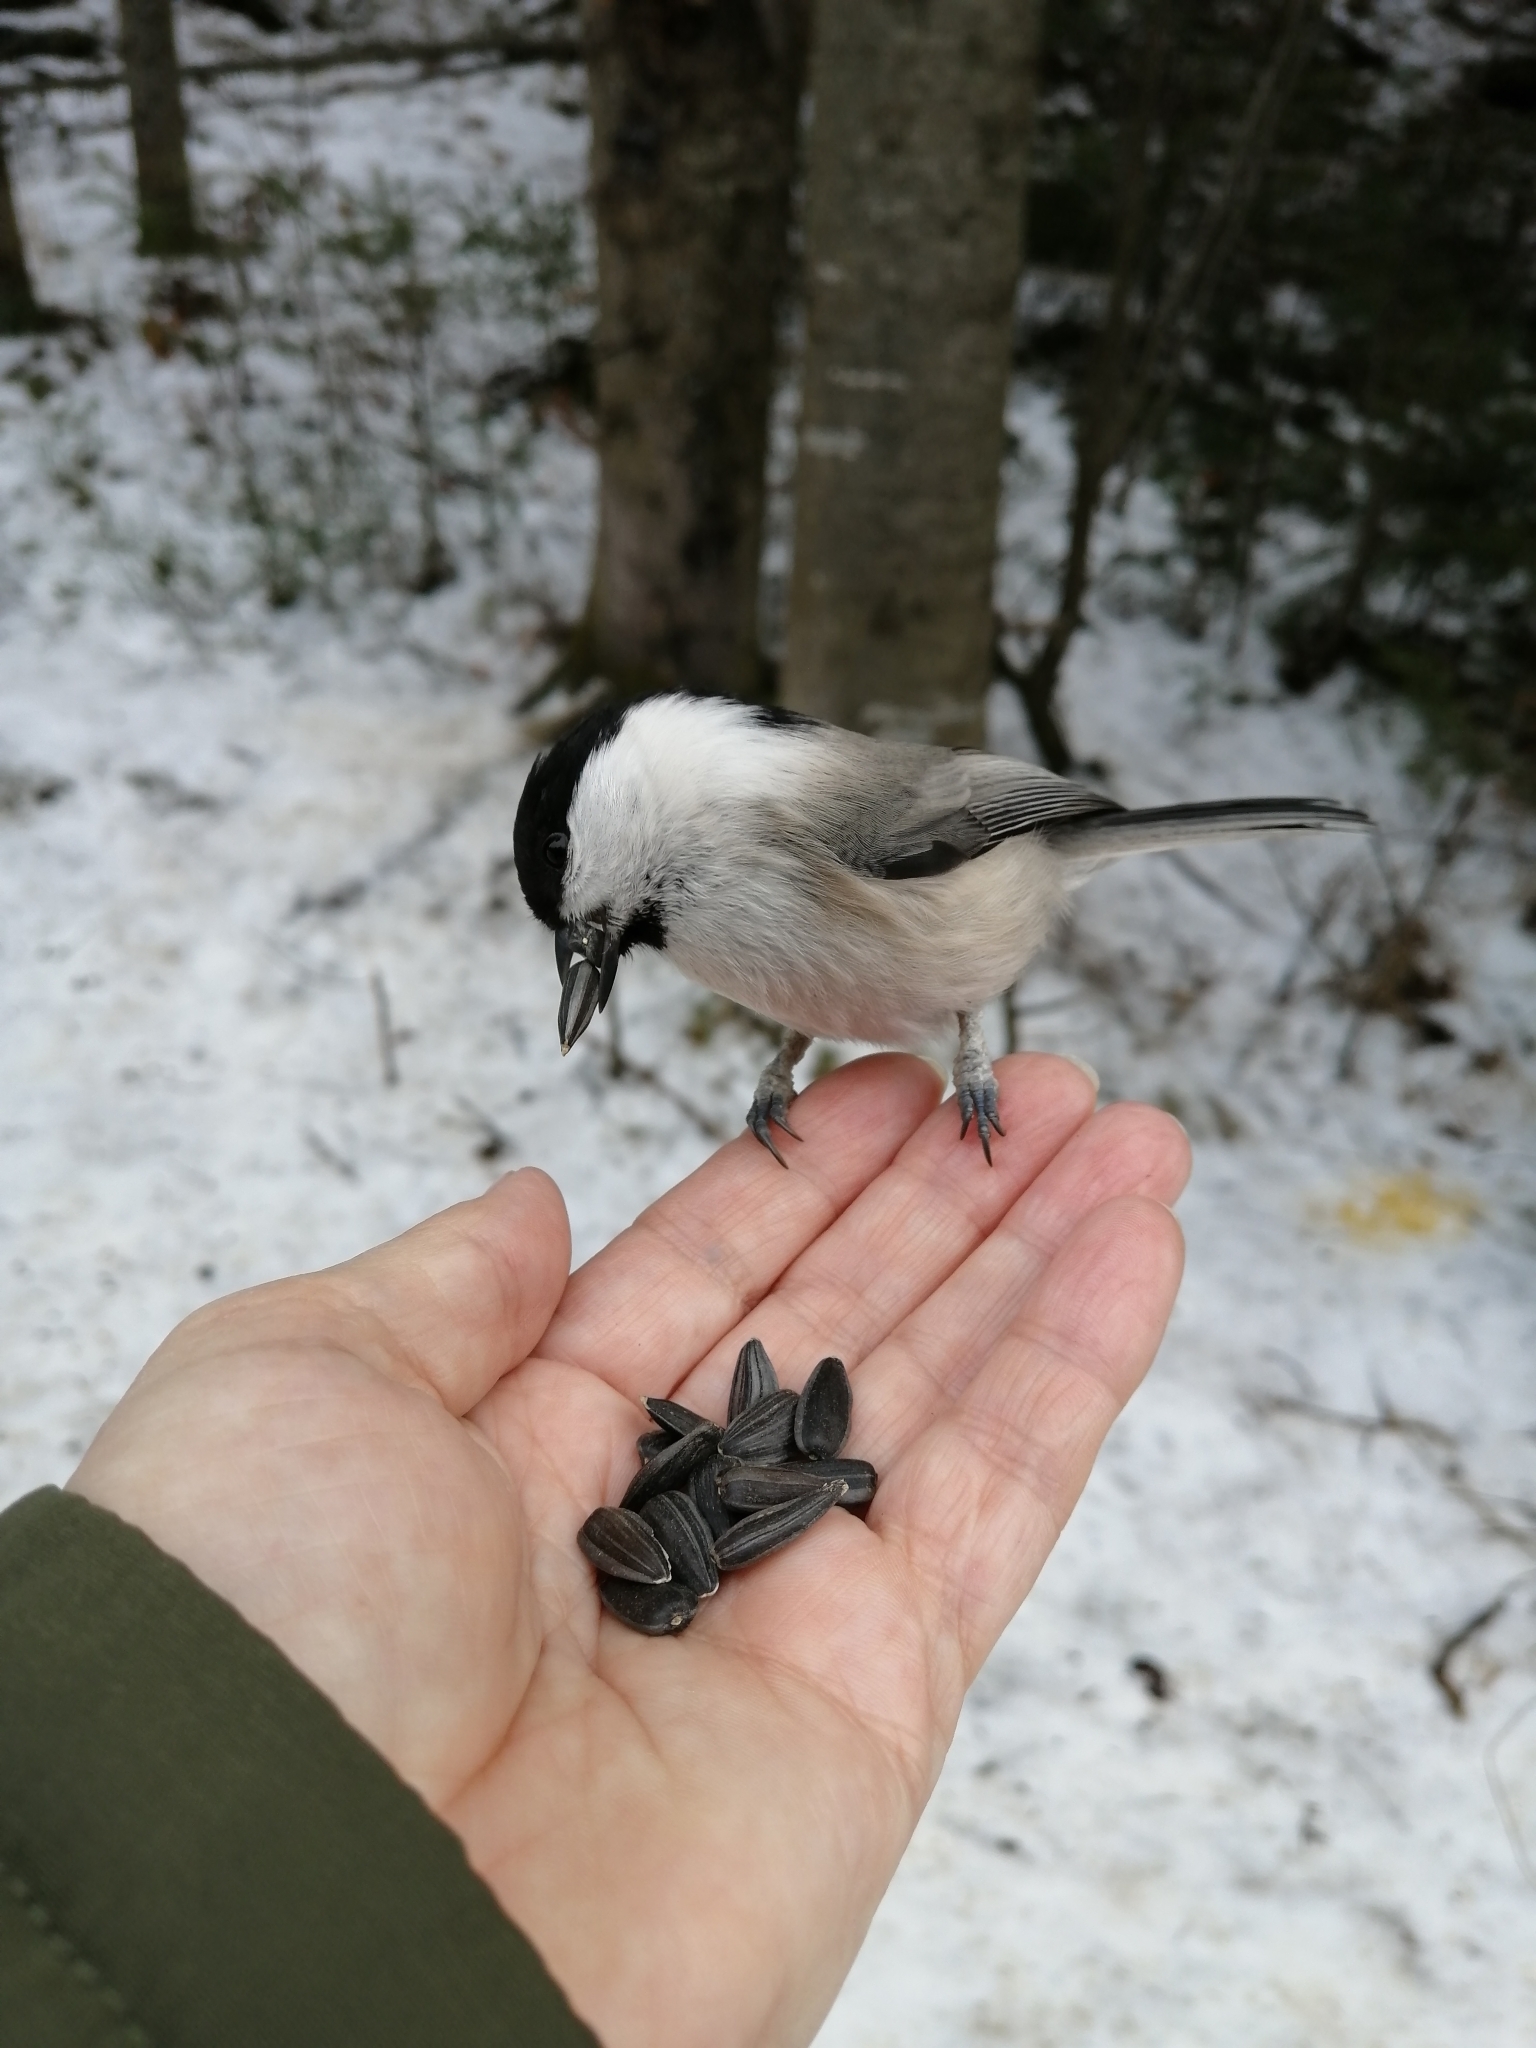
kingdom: Animalia
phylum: Chordata
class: Aves
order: Passeriformes
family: Paridae
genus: Poecile
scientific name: Poecile montanus
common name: Willow tit
